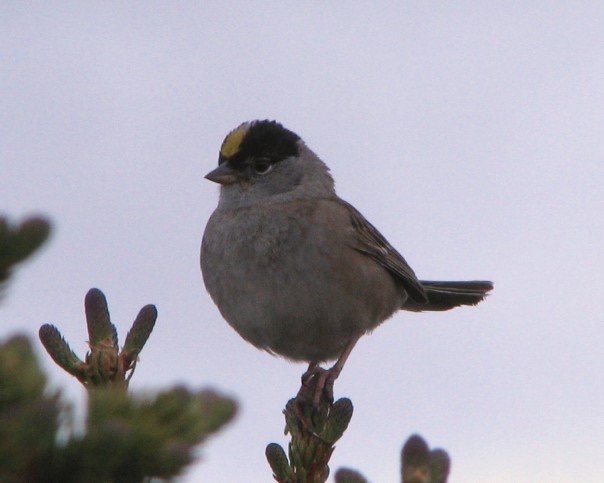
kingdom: Animalia
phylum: Chordata
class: Aves
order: Passeriformes
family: Passerellidae
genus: Zonotrichia
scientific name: Zonotrichia atricapilla
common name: Golden-crowned sparrow
